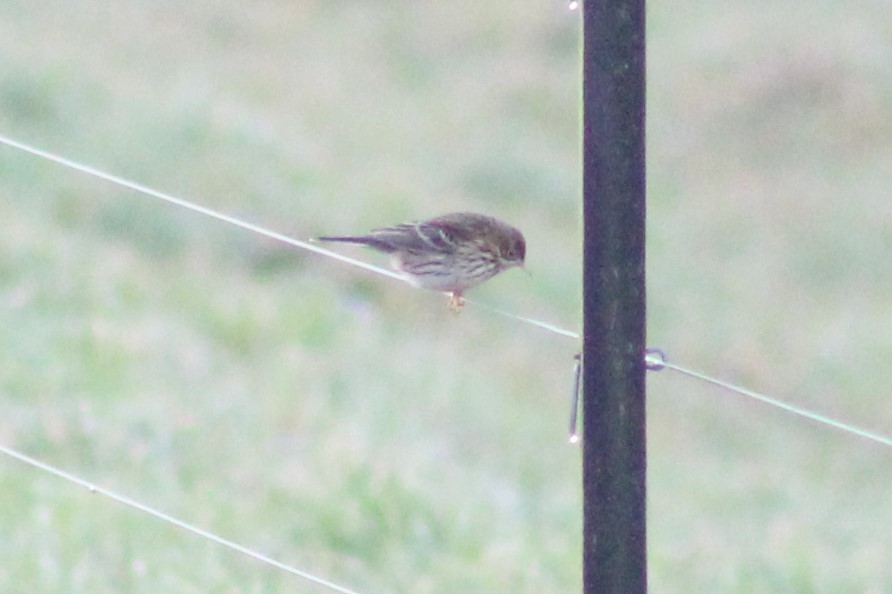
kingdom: Animalia
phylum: Chordata
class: Aves
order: Passeriformes
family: Motacillidae
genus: Anthus
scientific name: Anthus pratensis
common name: Meadow pipit
